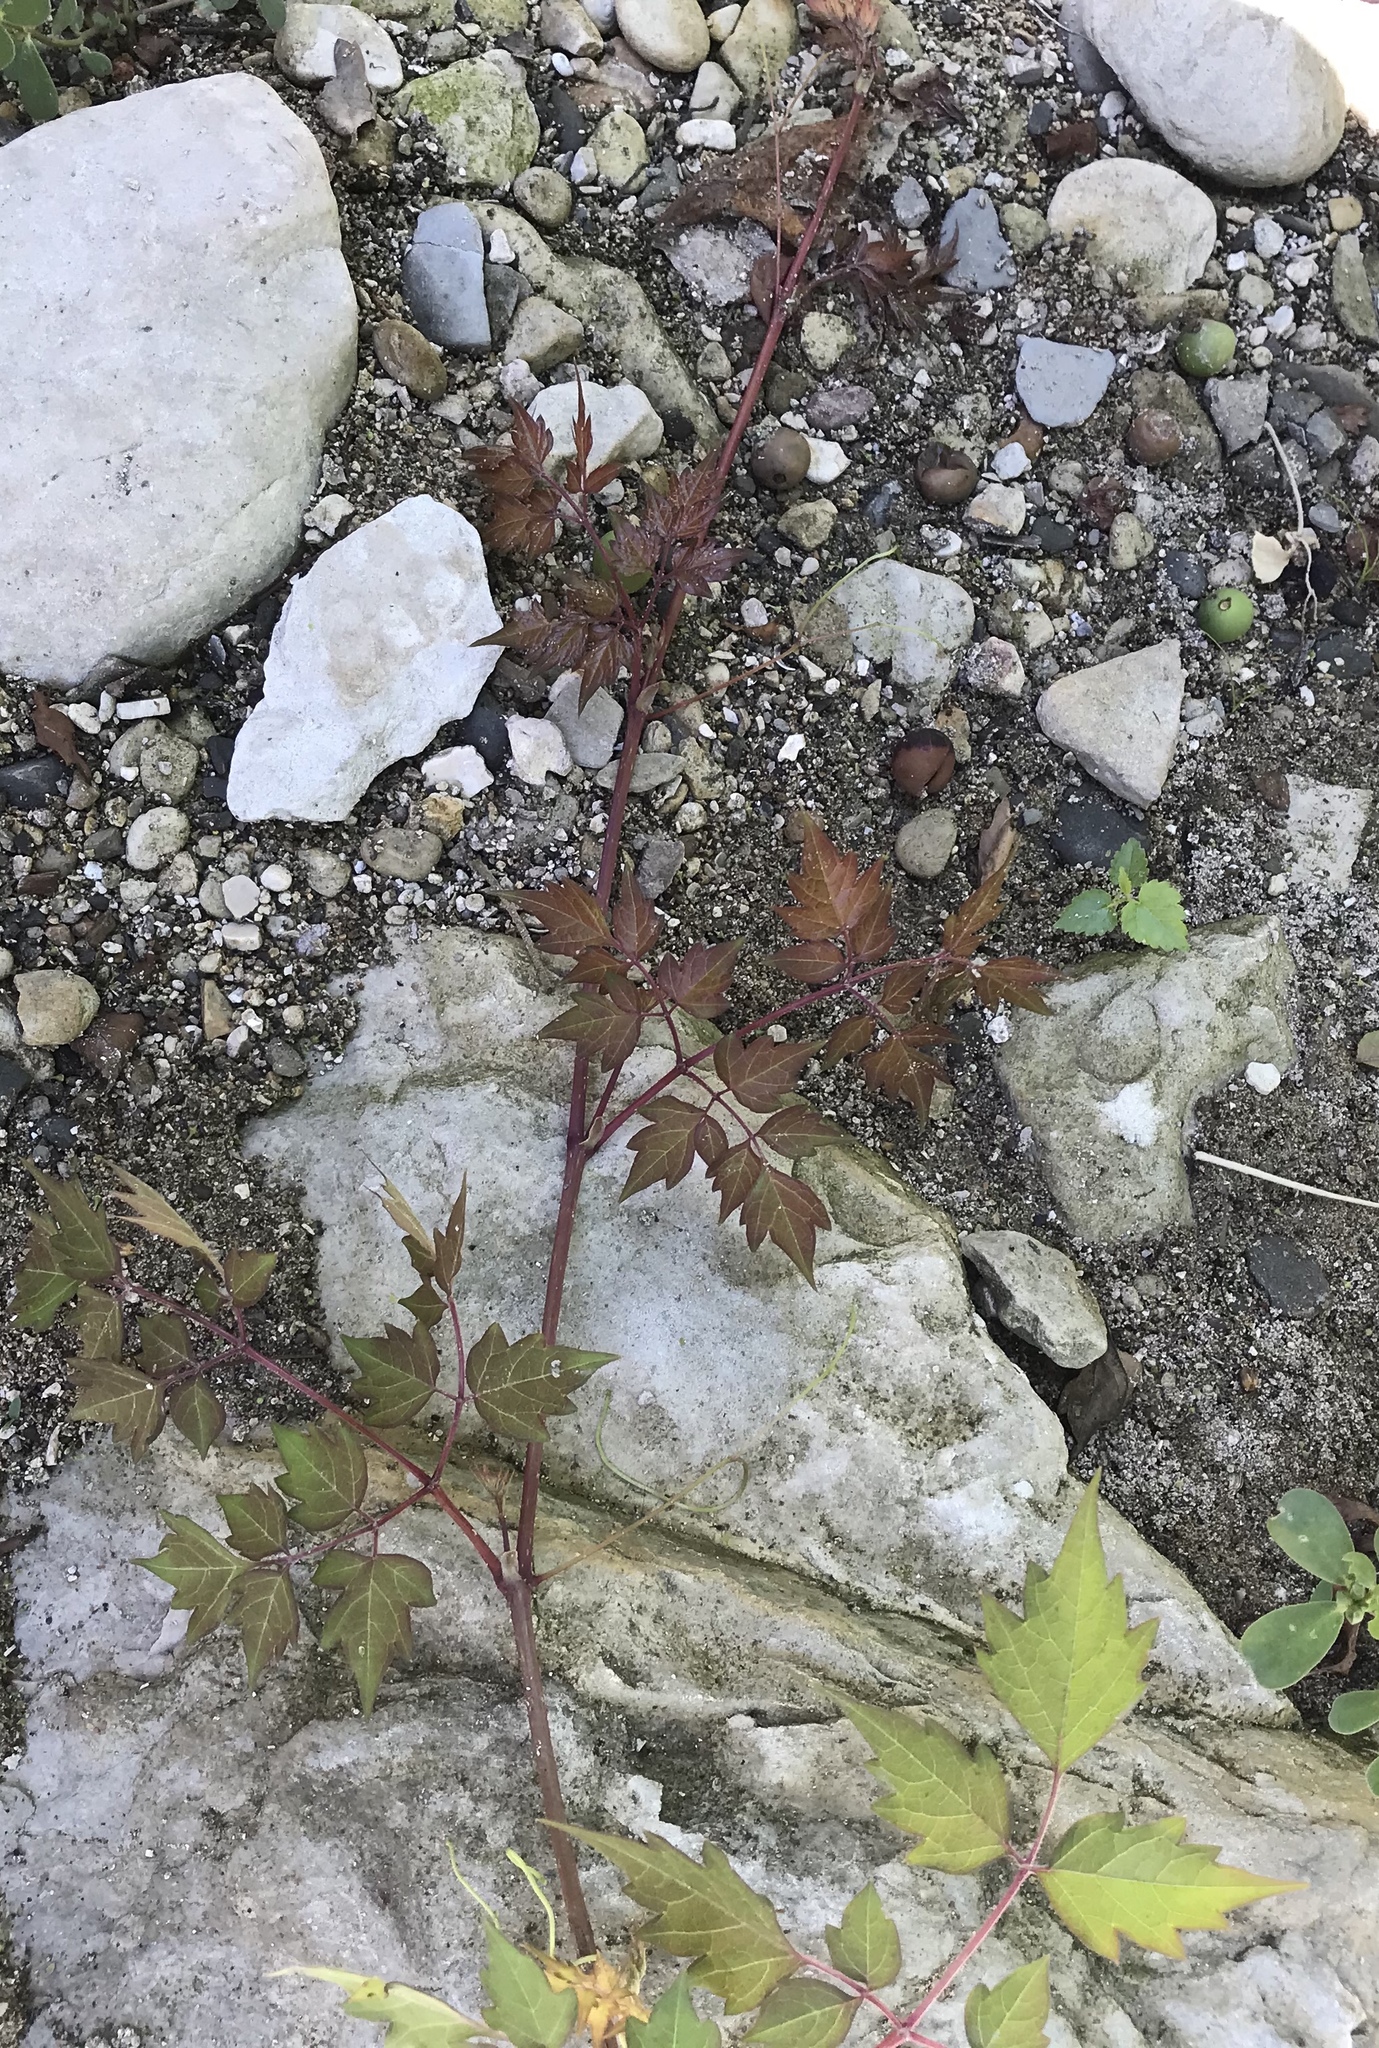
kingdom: Plantae
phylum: Tracheophyta
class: Magnoliopsida
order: Vitales
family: Vitaceae
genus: Nekemias
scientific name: Nekemias arborea
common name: Peppervine
